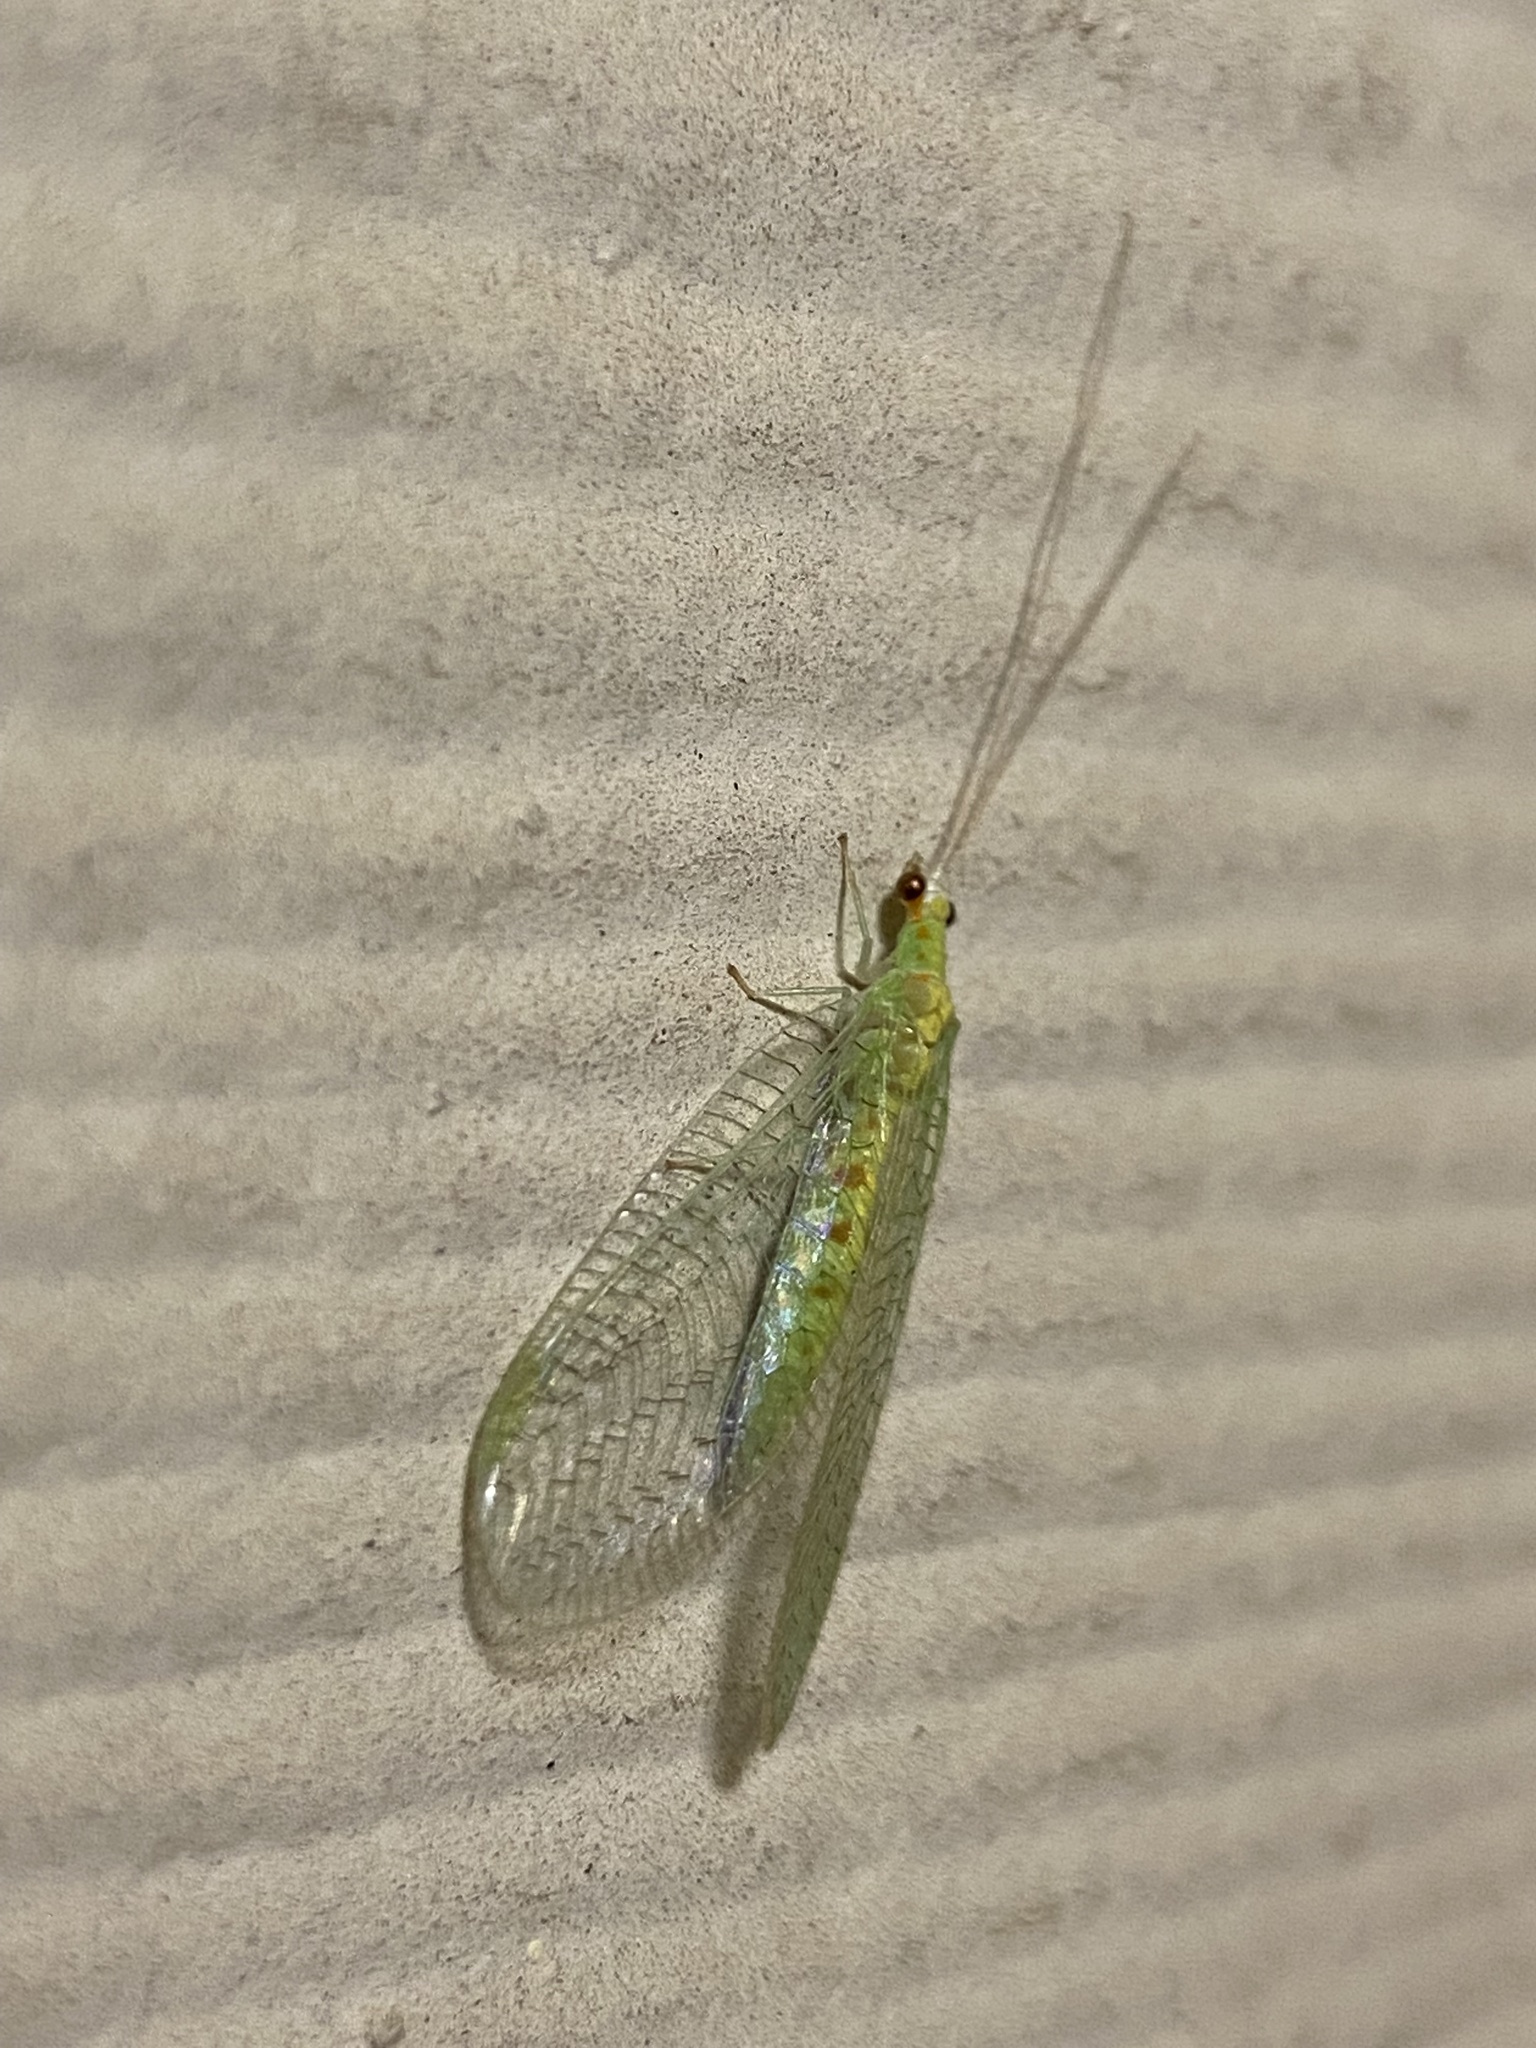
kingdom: Animalia
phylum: Arthropoda
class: Insecta
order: Neuroptera
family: Chrysopidae
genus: Chrysopa
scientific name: Chrysopa quadripunctata
